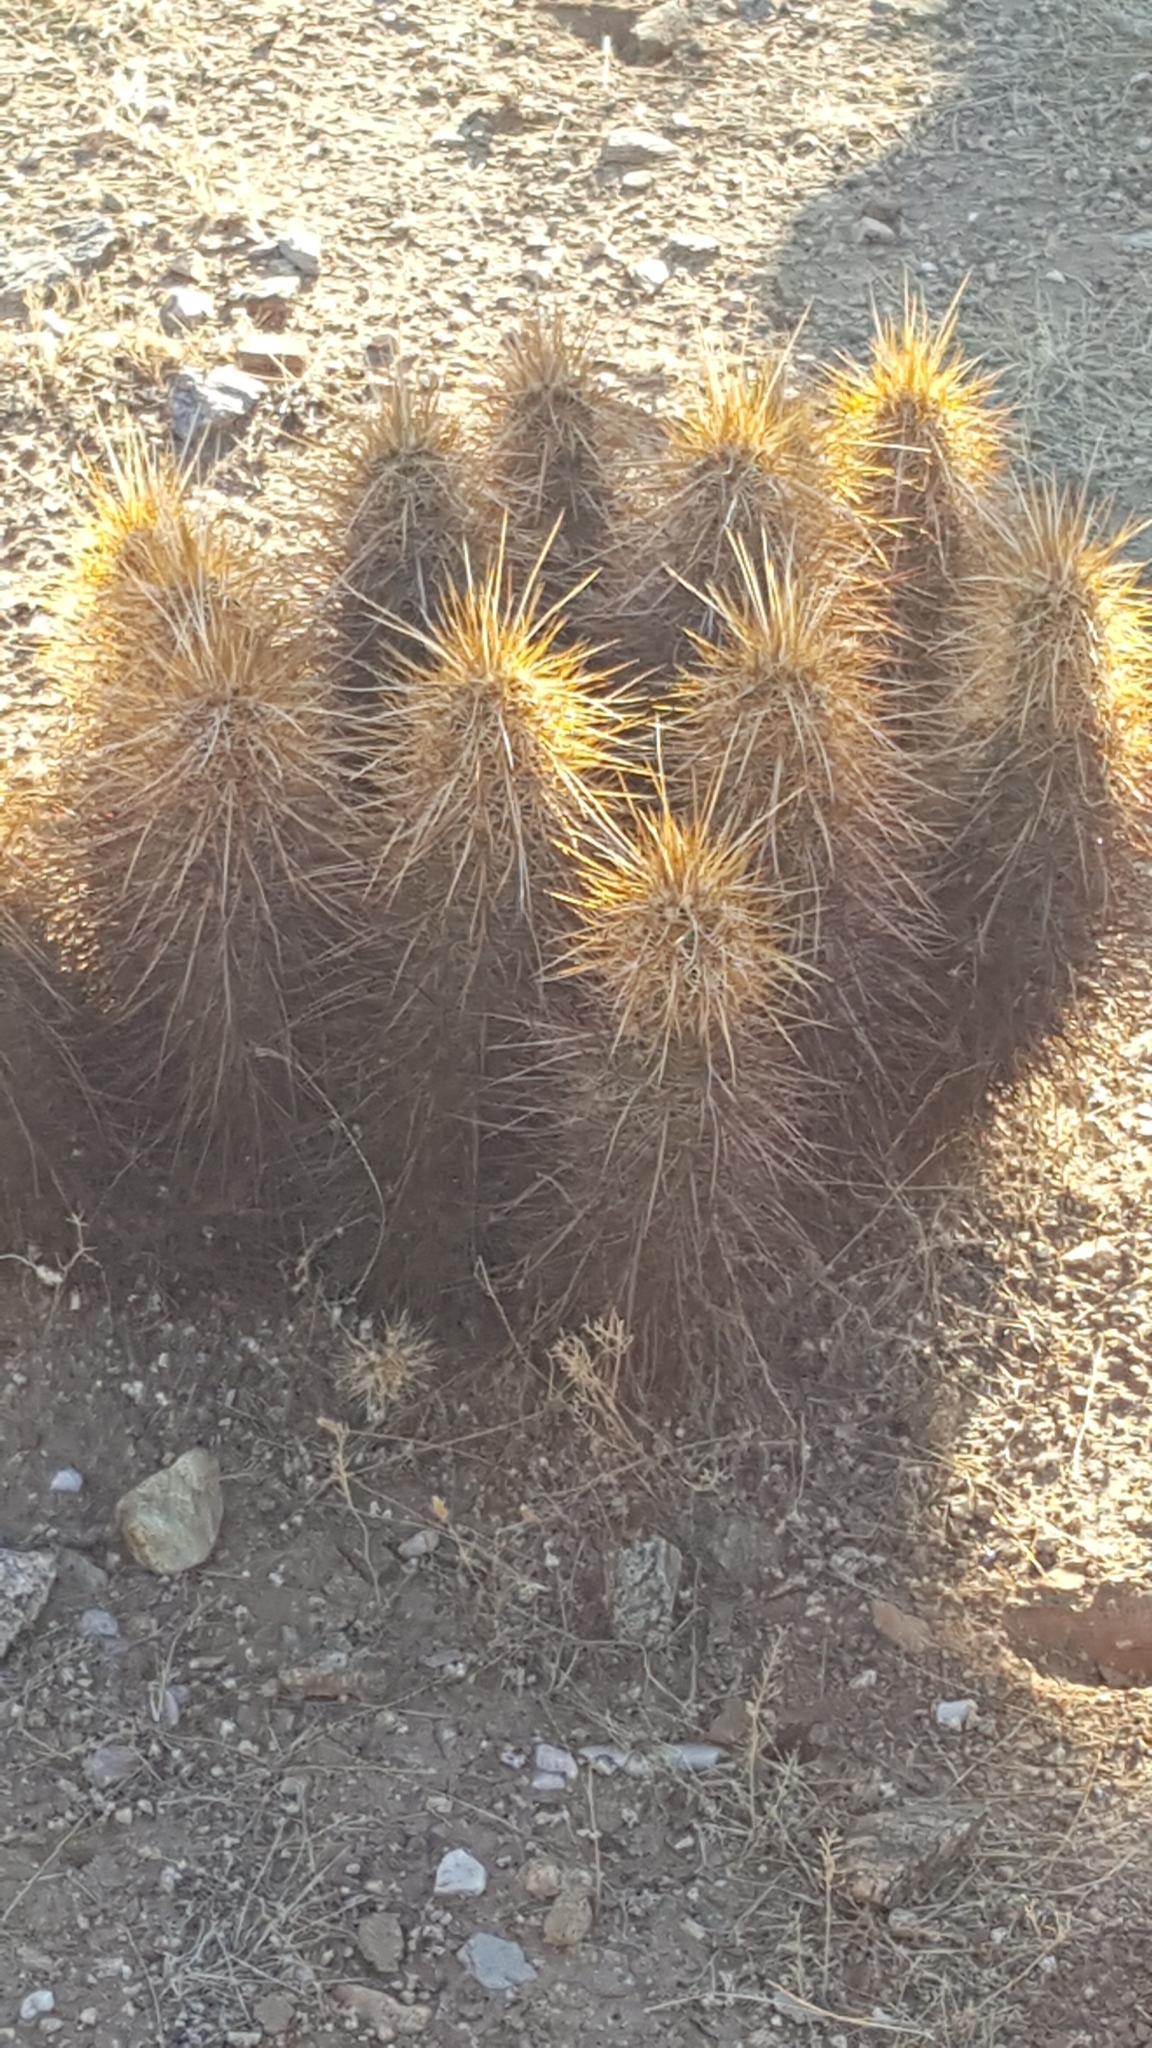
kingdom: Plantae
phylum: Tracheophyta
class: Magnoliopsida
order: Caryophyllales
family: Cactaceae
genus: Echinocereus
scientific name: Echinocereus engelmannii
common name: Engelmann's hedgehog cactus
